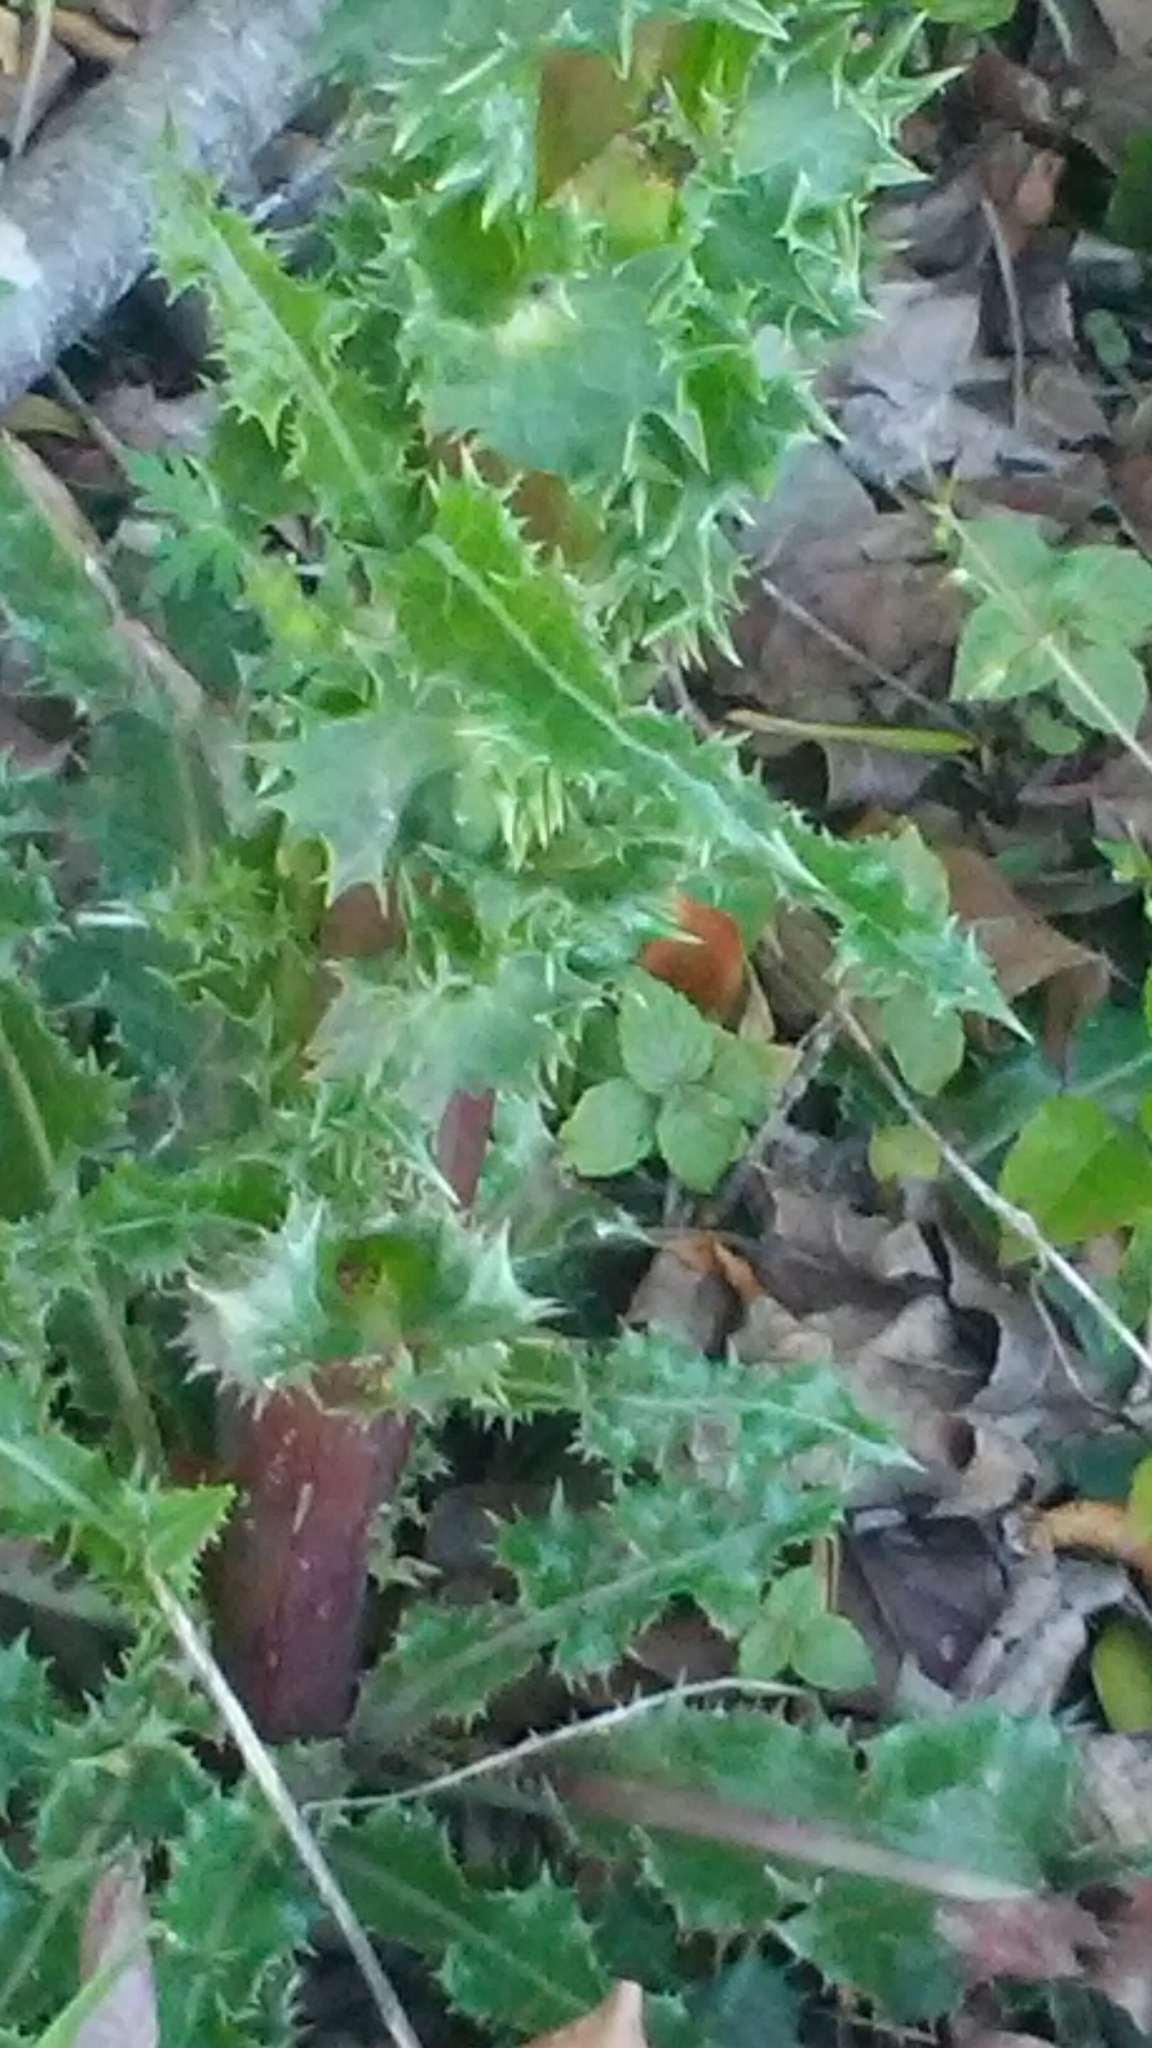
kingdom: Plantae
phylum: Tracheophyta
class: Magnoliopsida
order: Asterales
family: Asteraceae
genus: Sonchus
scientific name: Sonchus asper
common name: Prickly sow-thistle
